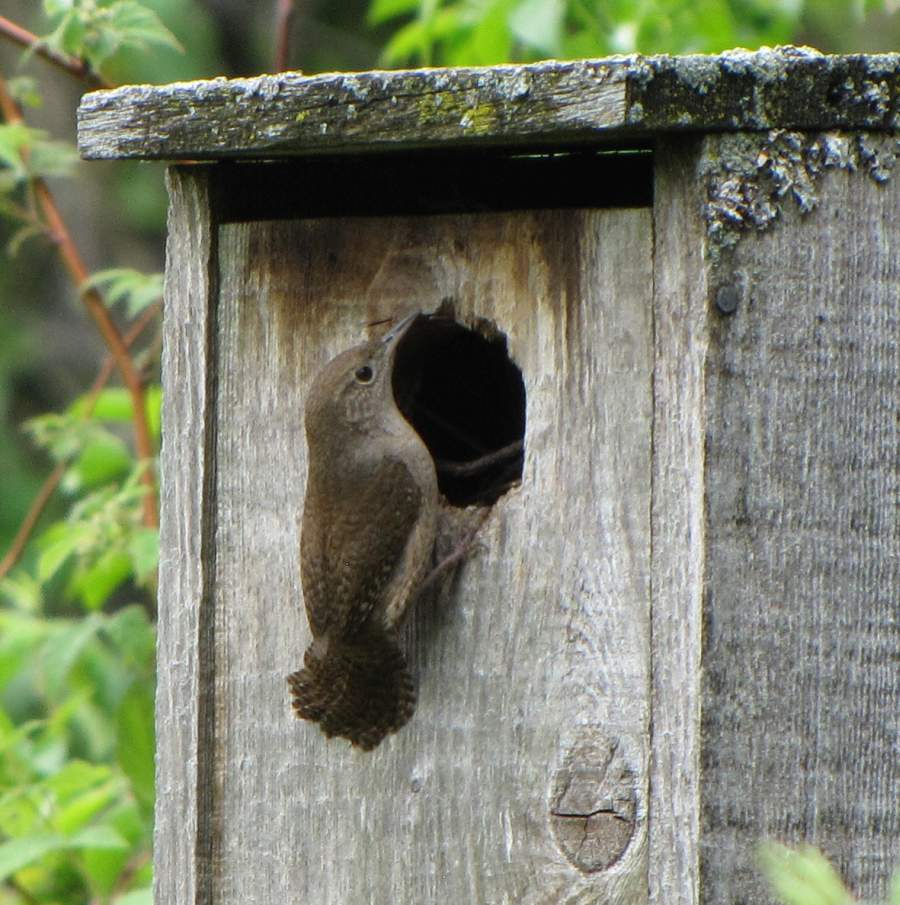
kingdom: Animalia
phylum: Chordata
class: Aves
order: Passeriformes
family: Troglodytidae
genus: Troglodytes
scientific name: Troglodytes aedon
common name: House wren
